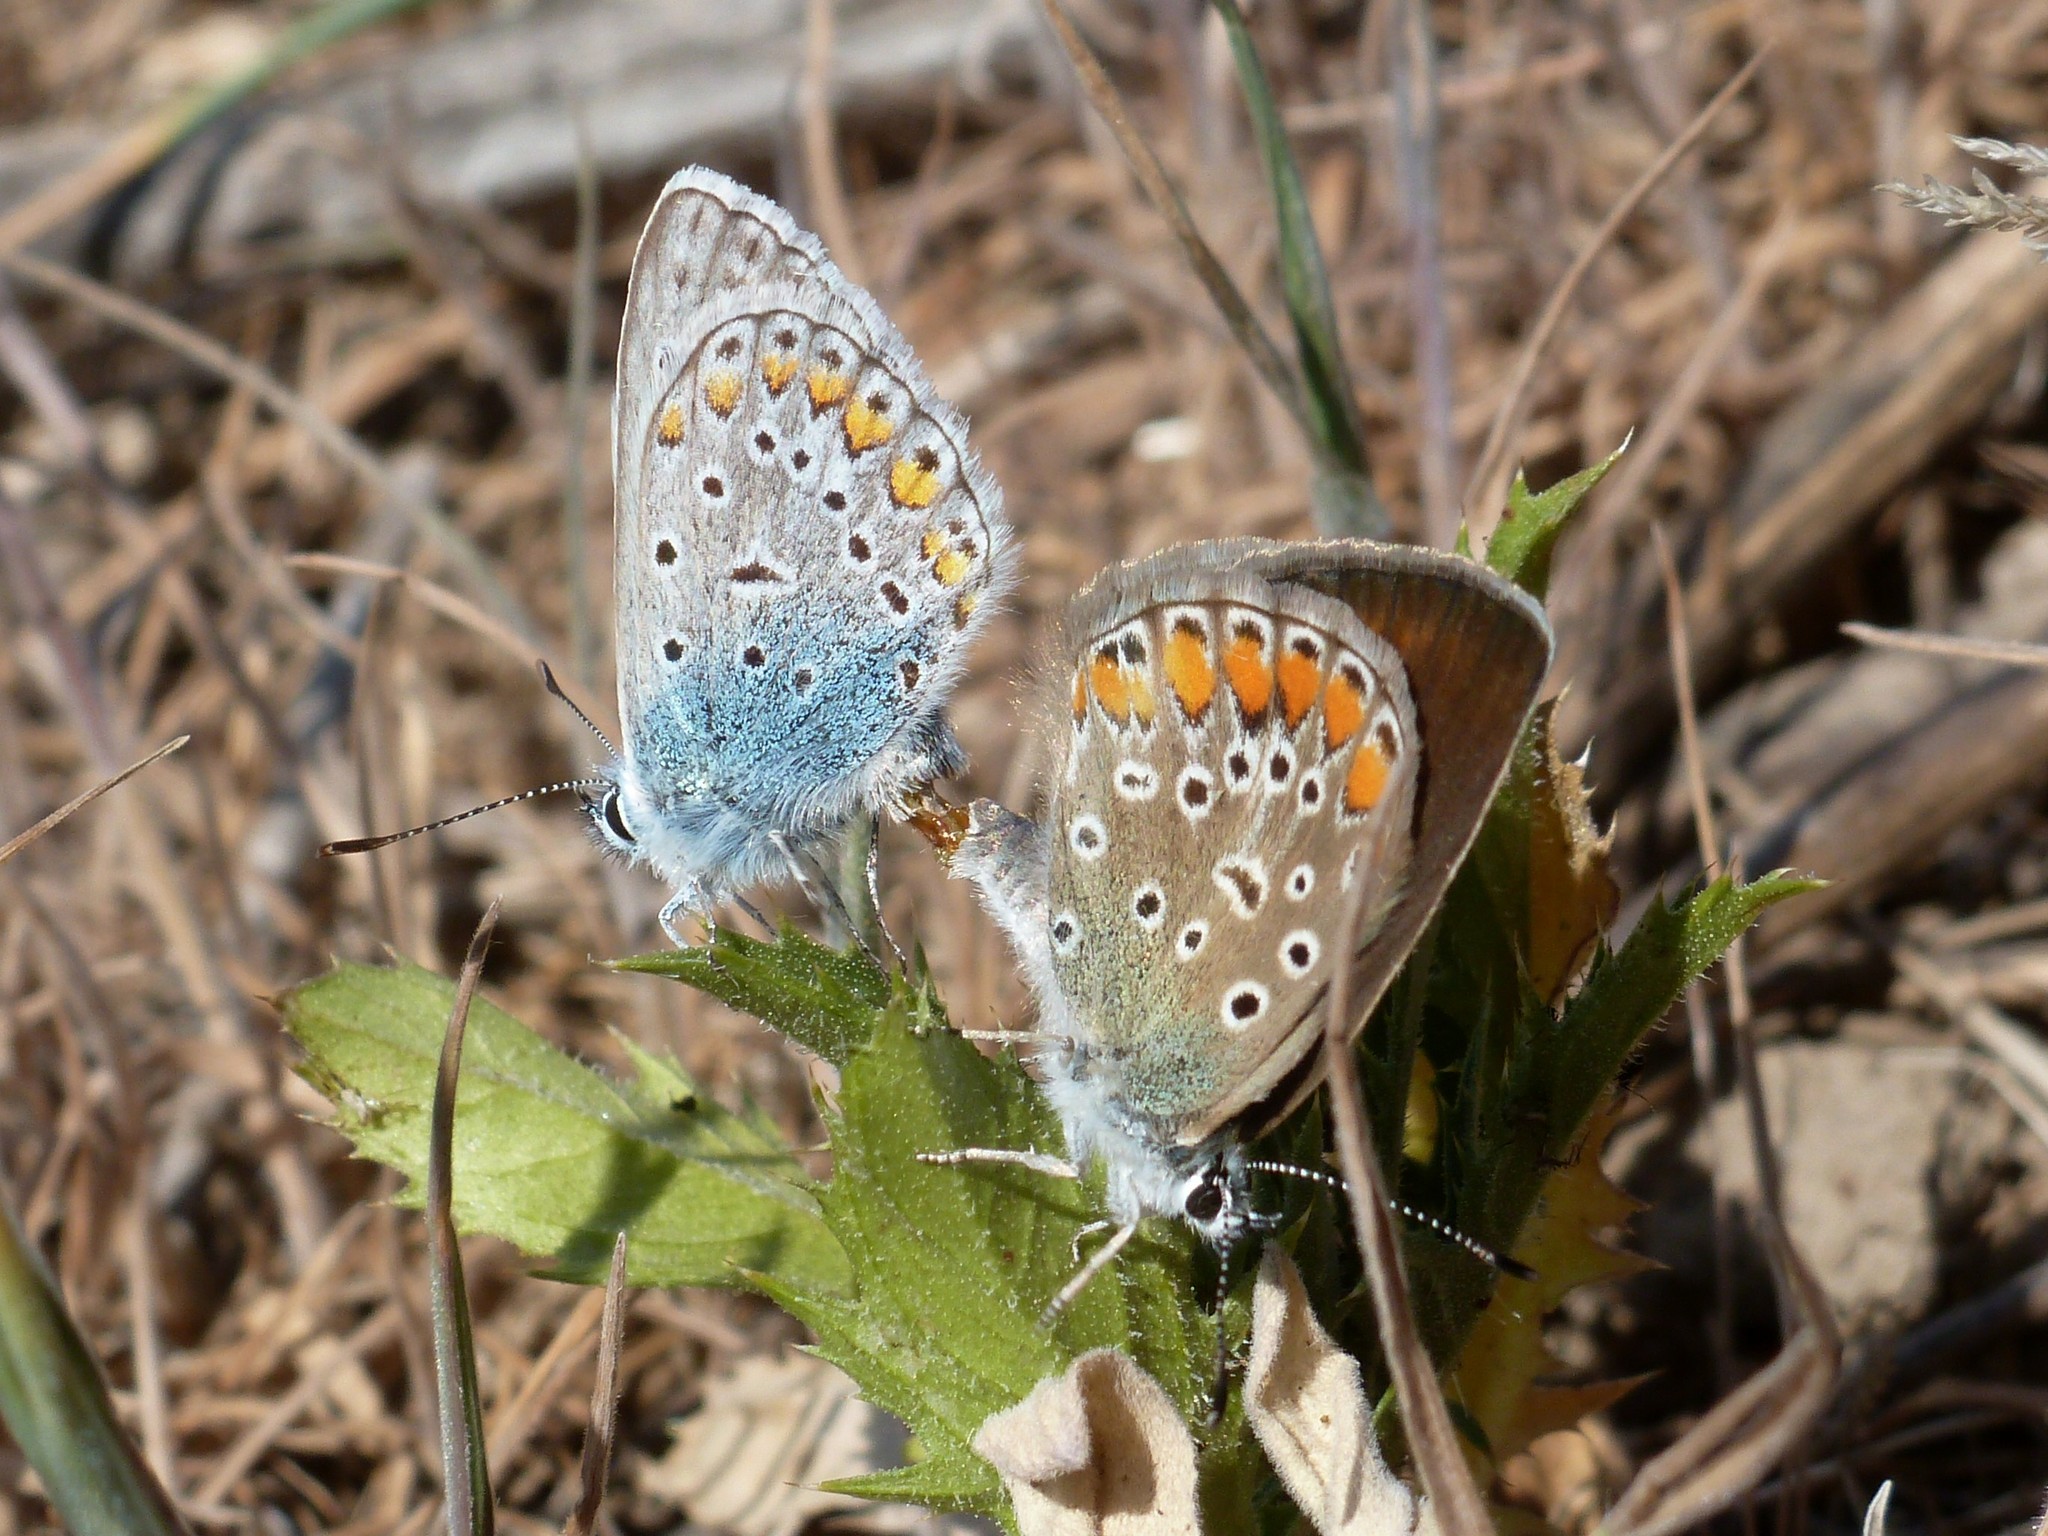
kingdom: Animalia
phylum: Arthropoda
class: Insecta
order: Lepidoptera
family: Lycaenidae
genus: Polyommatus
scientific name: Polyommatus icarus
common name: Common blue
